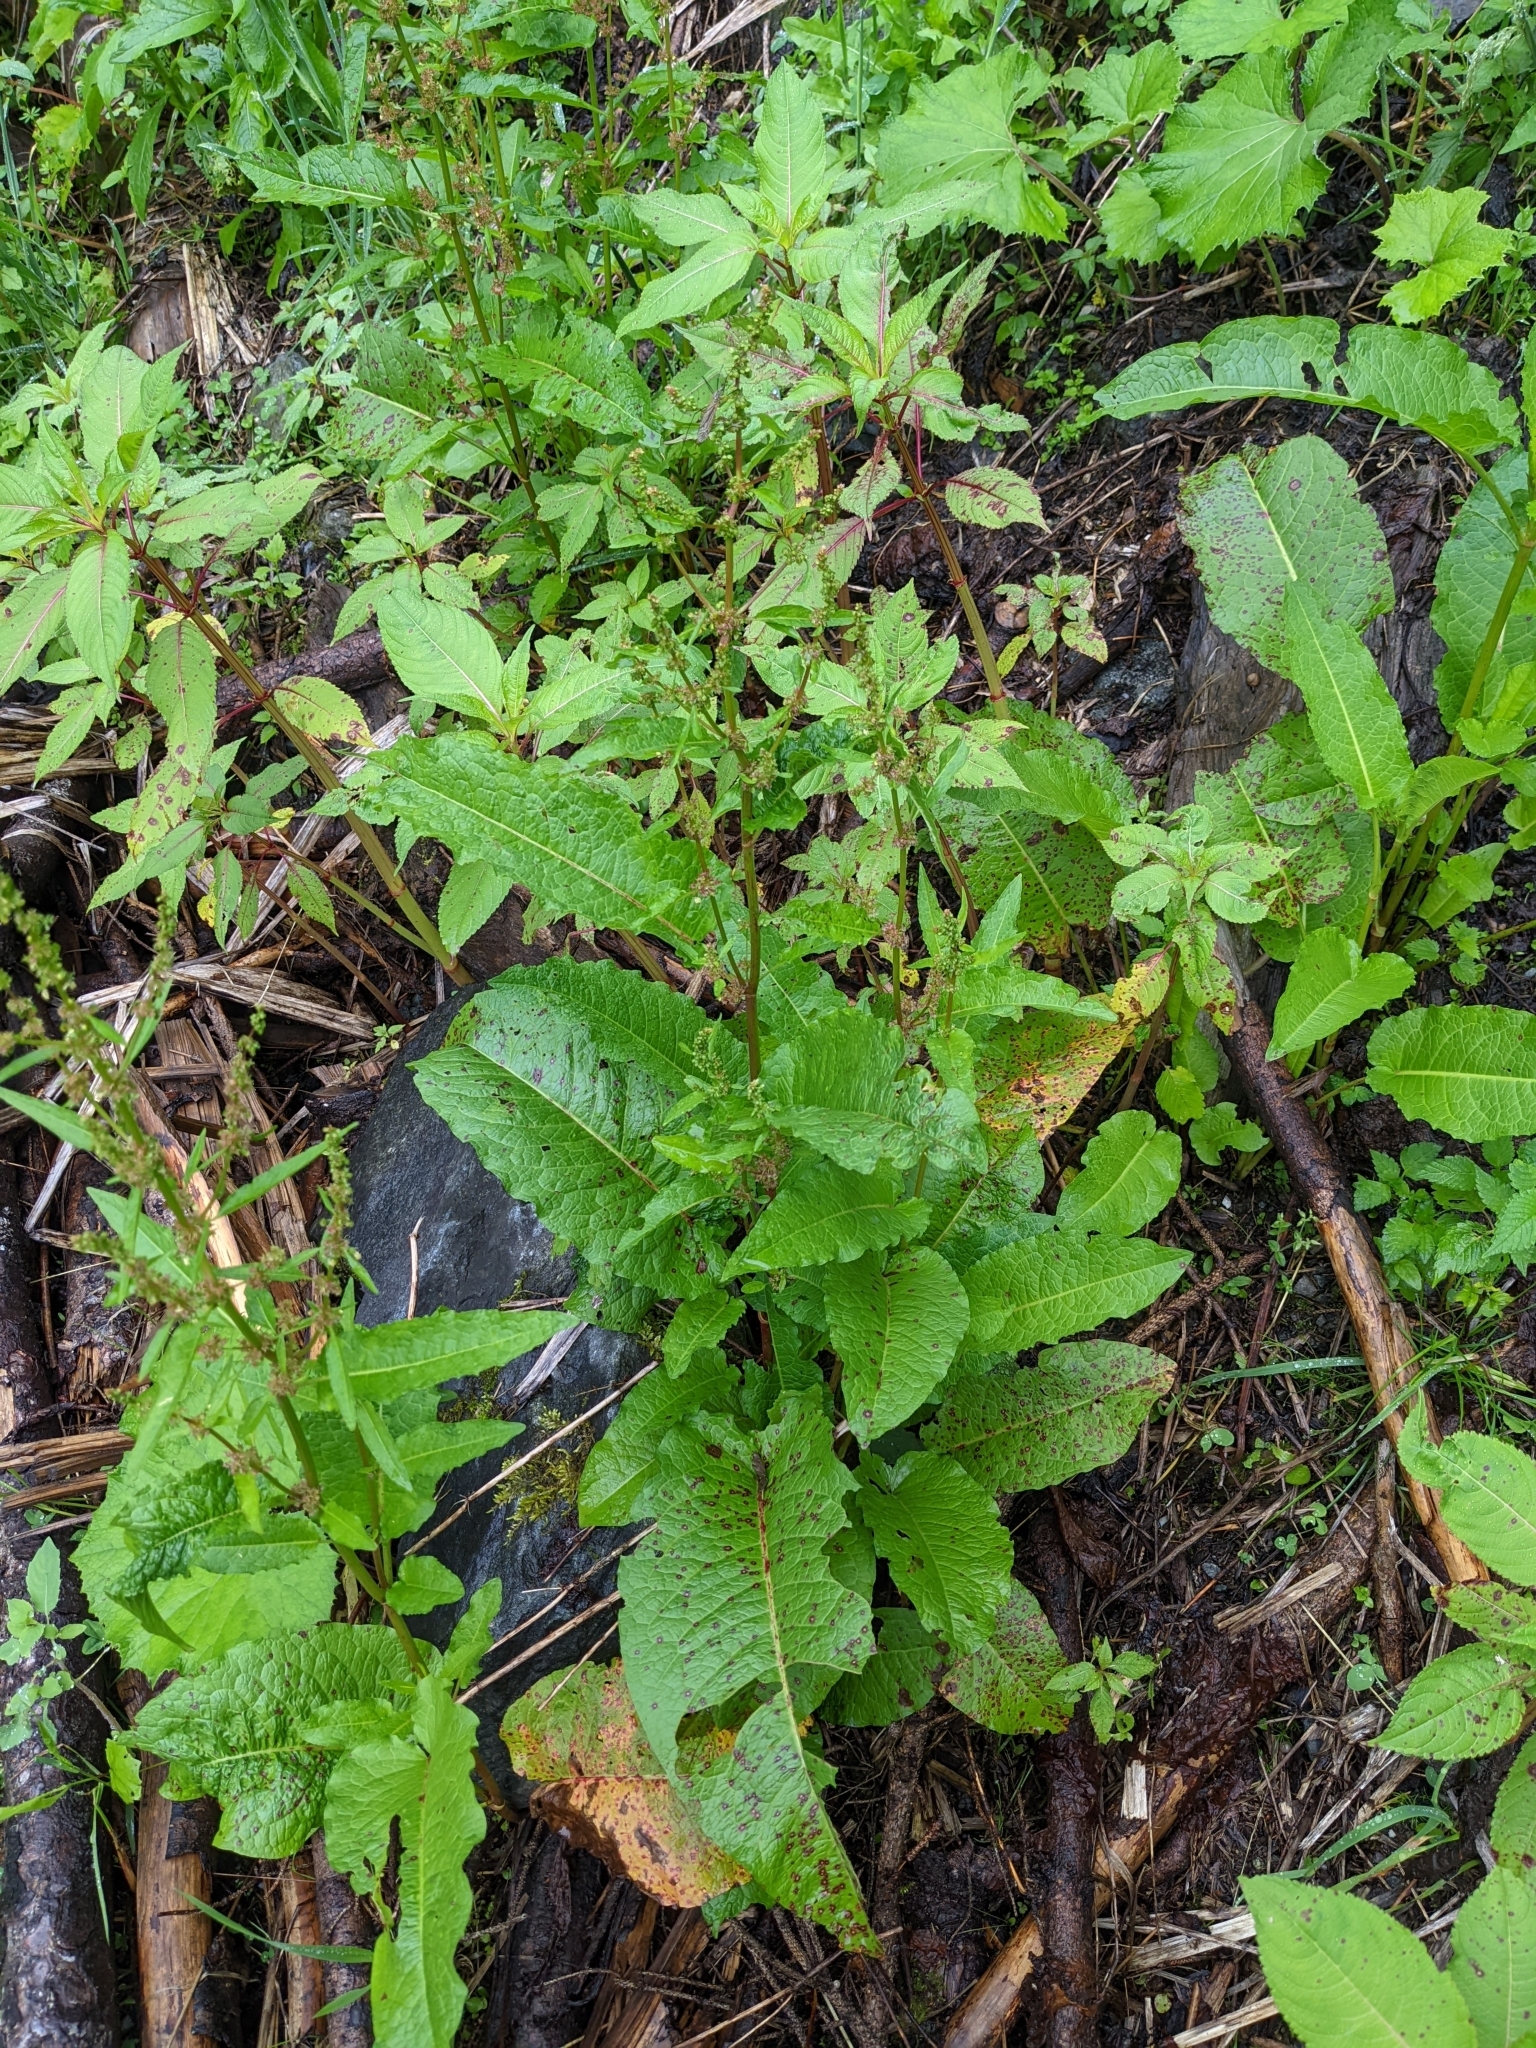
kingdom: Plantae
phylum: Tracheophyta
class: Magnoliopsida
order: Caryophyllales
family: Polygonaceae
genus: Rumex
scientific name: Rumex alpinus
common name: Alpine dock
